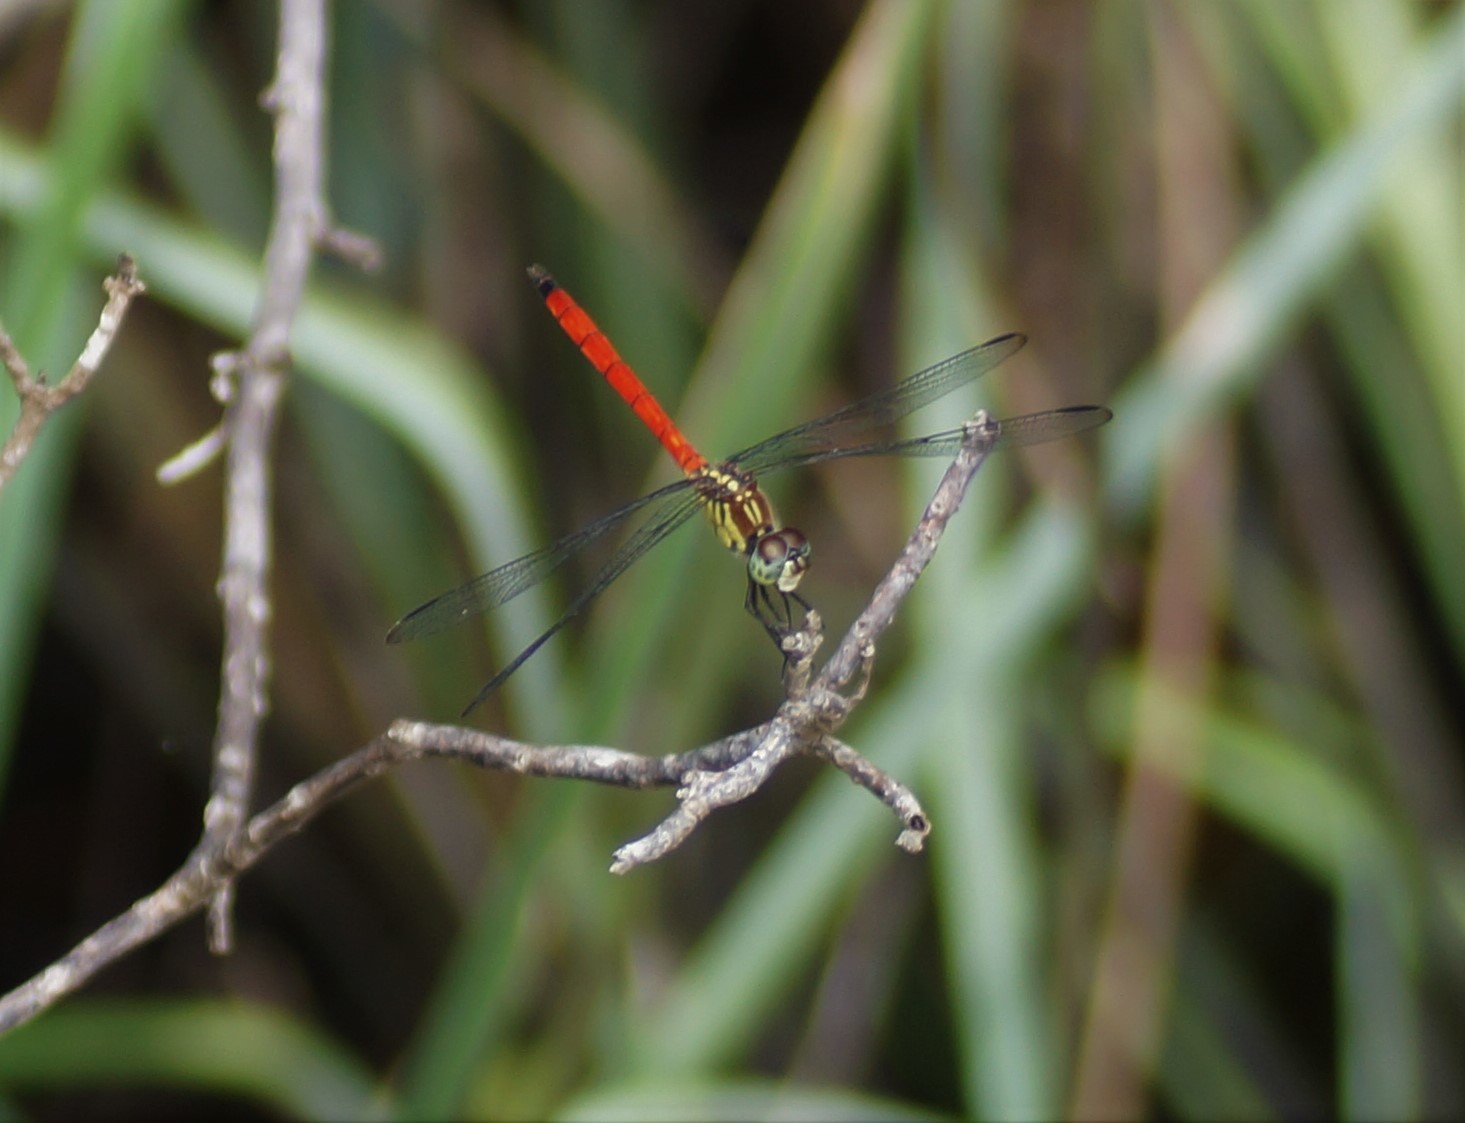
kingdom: Animalia
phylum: Arthropoda
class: Insecta
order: Odonata
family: Libellulidae
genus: Lathrecista
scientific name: Lathrecista asiatica
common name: Scarlet grenadier
